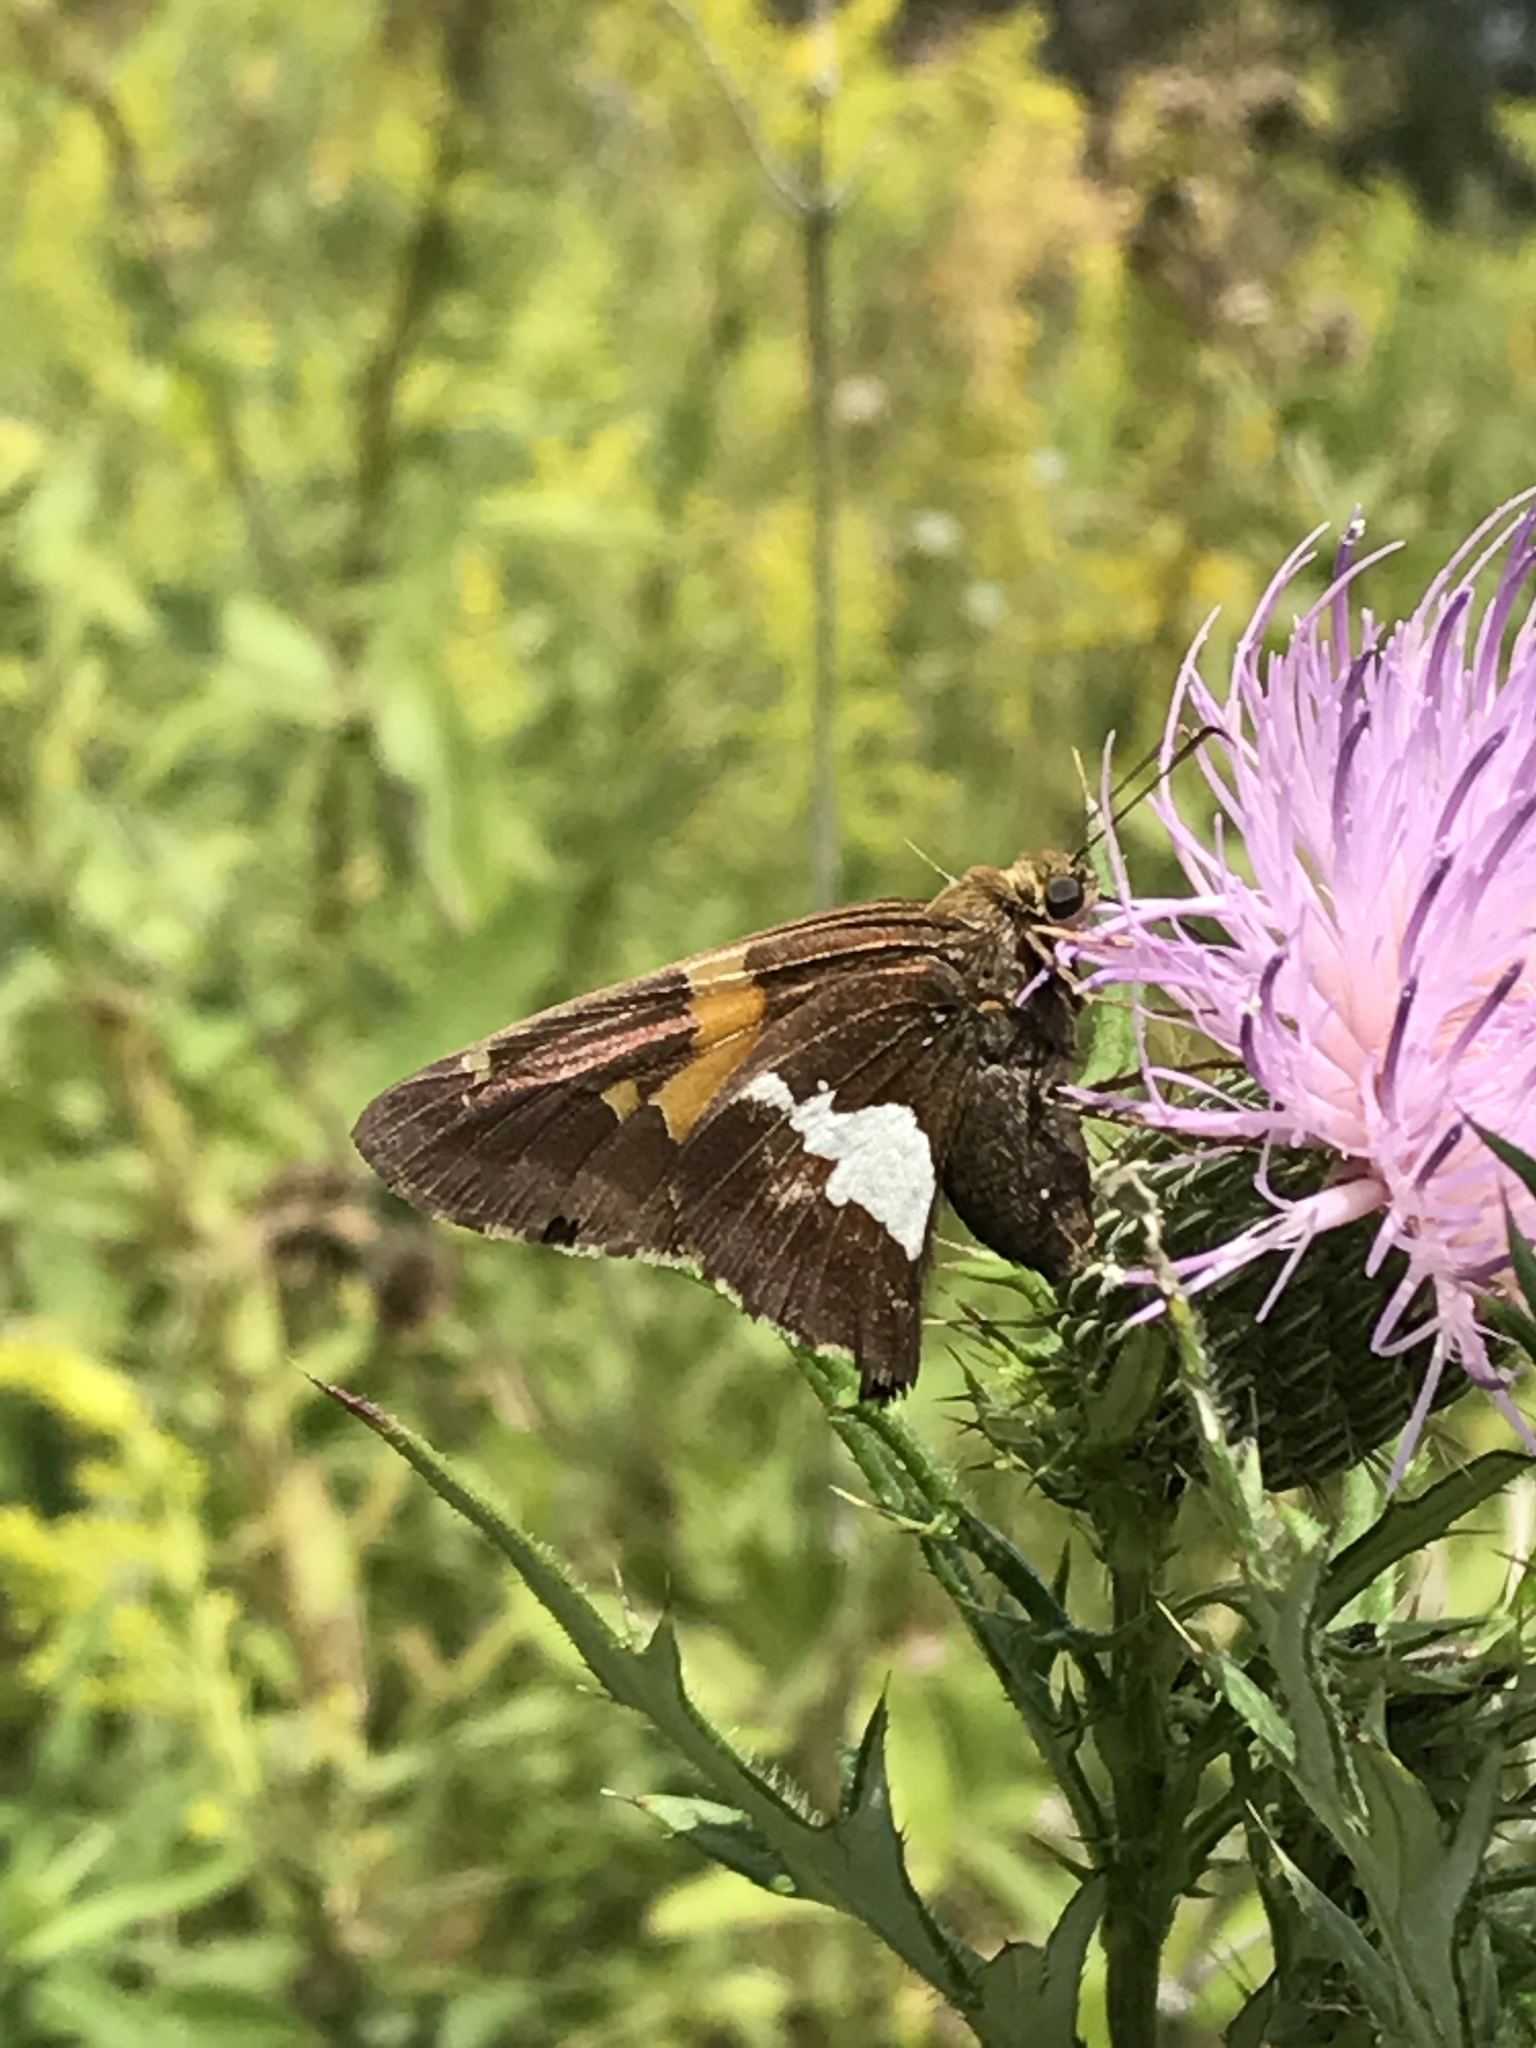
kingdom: Animalia
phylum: Arthropoda
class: Insecta
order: Lepidoptera
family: Hesperiidae
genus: Epargyreus
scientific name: Epargyreus clarus
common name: Silver-spotted skipper
